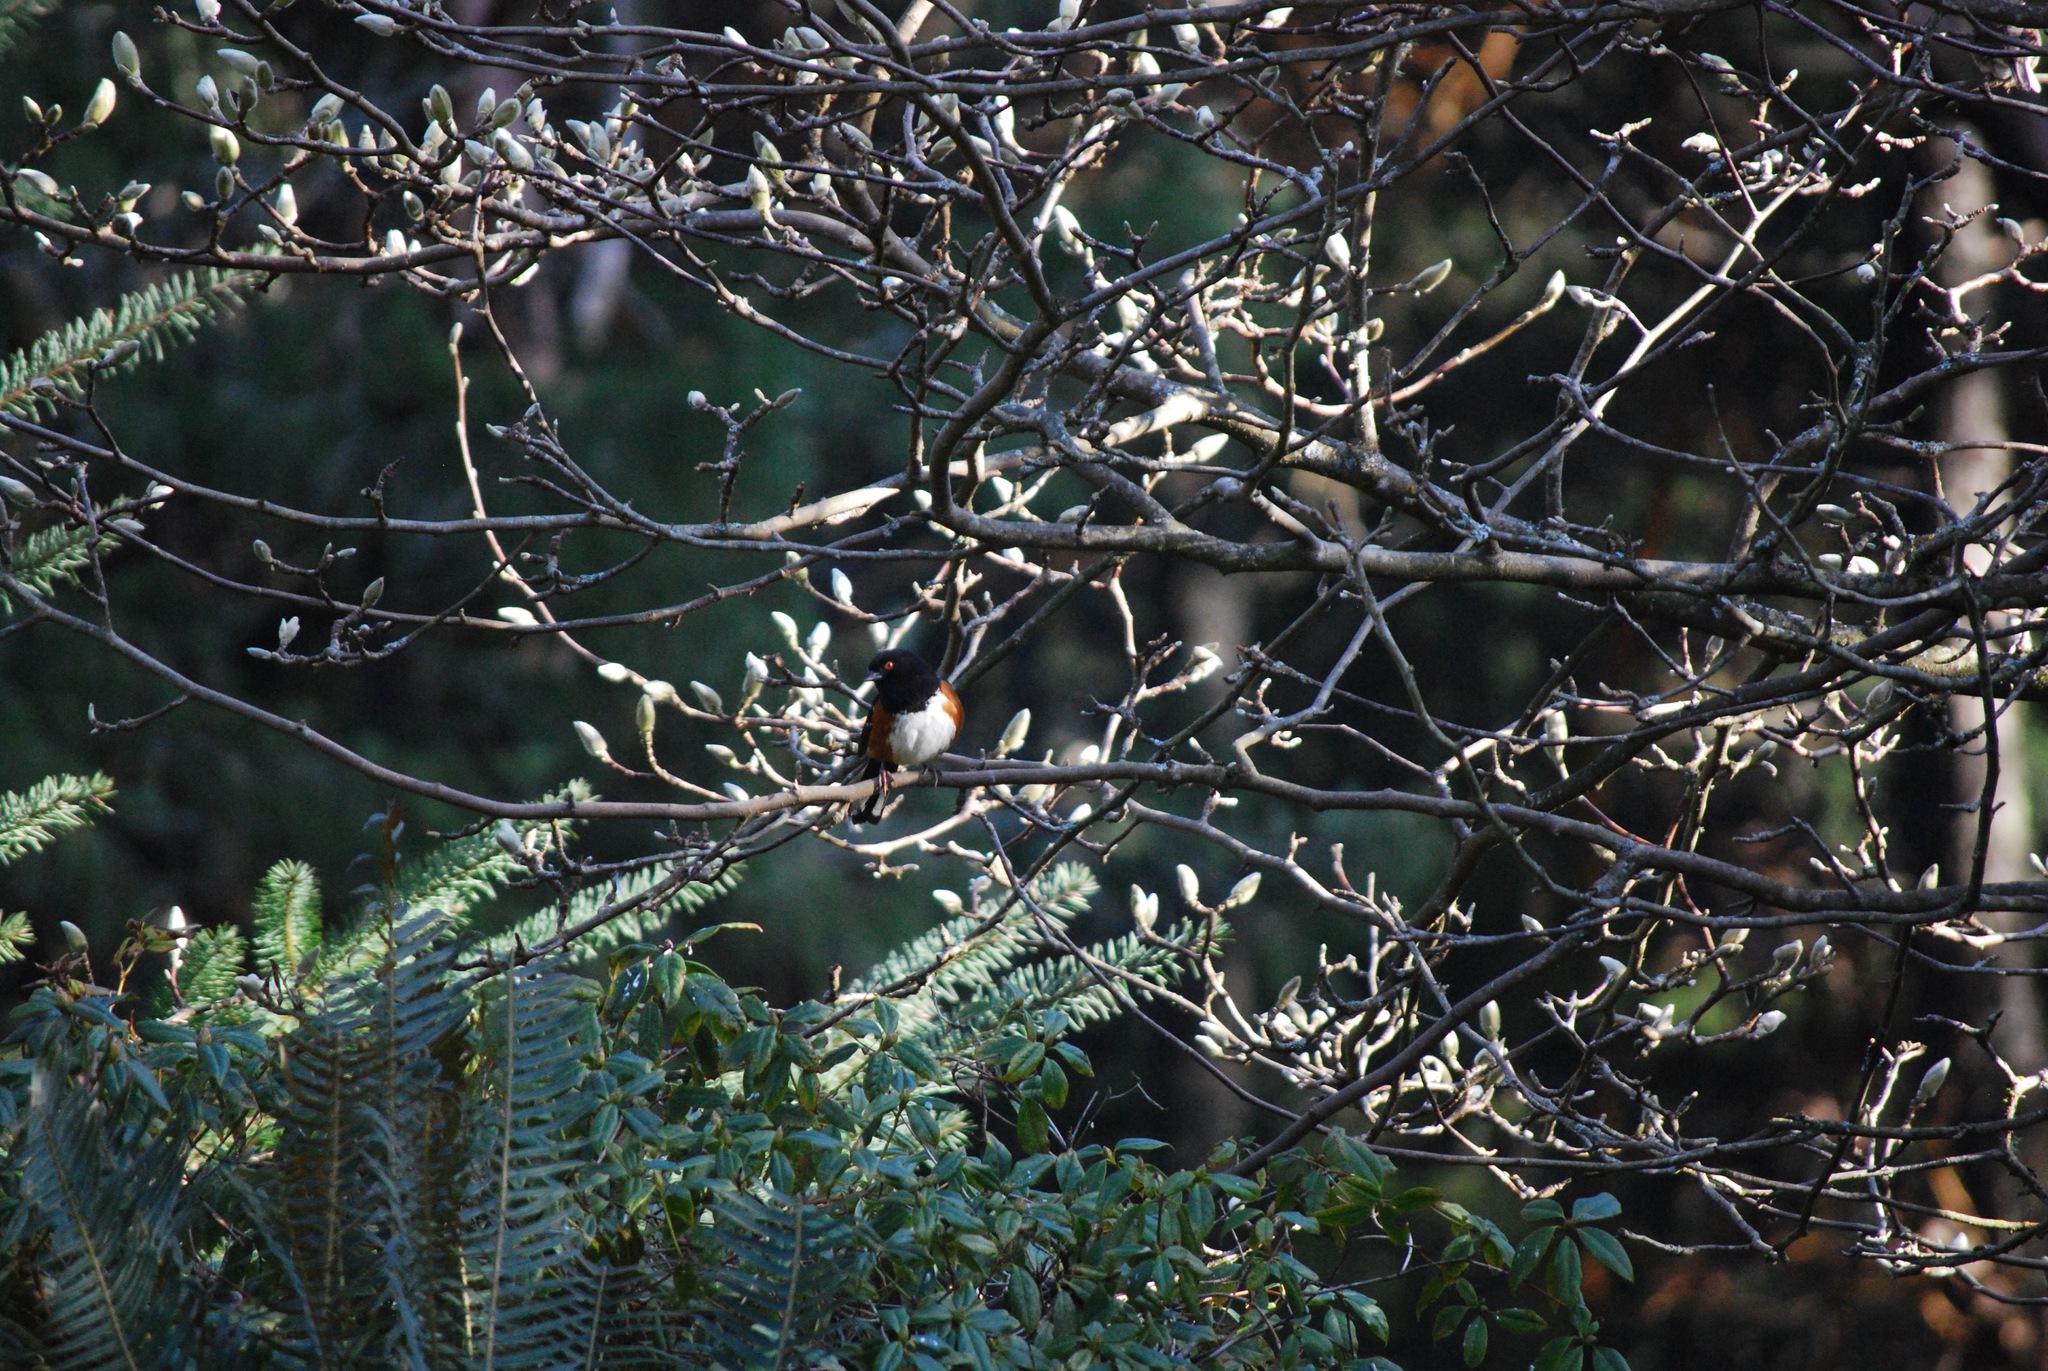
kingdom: Animalia
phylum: Chordata
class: Aves
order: Passeriformes
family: Passerellidae
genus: Pipilo
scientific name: Pipilo maculatus
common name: Spotted towhee
